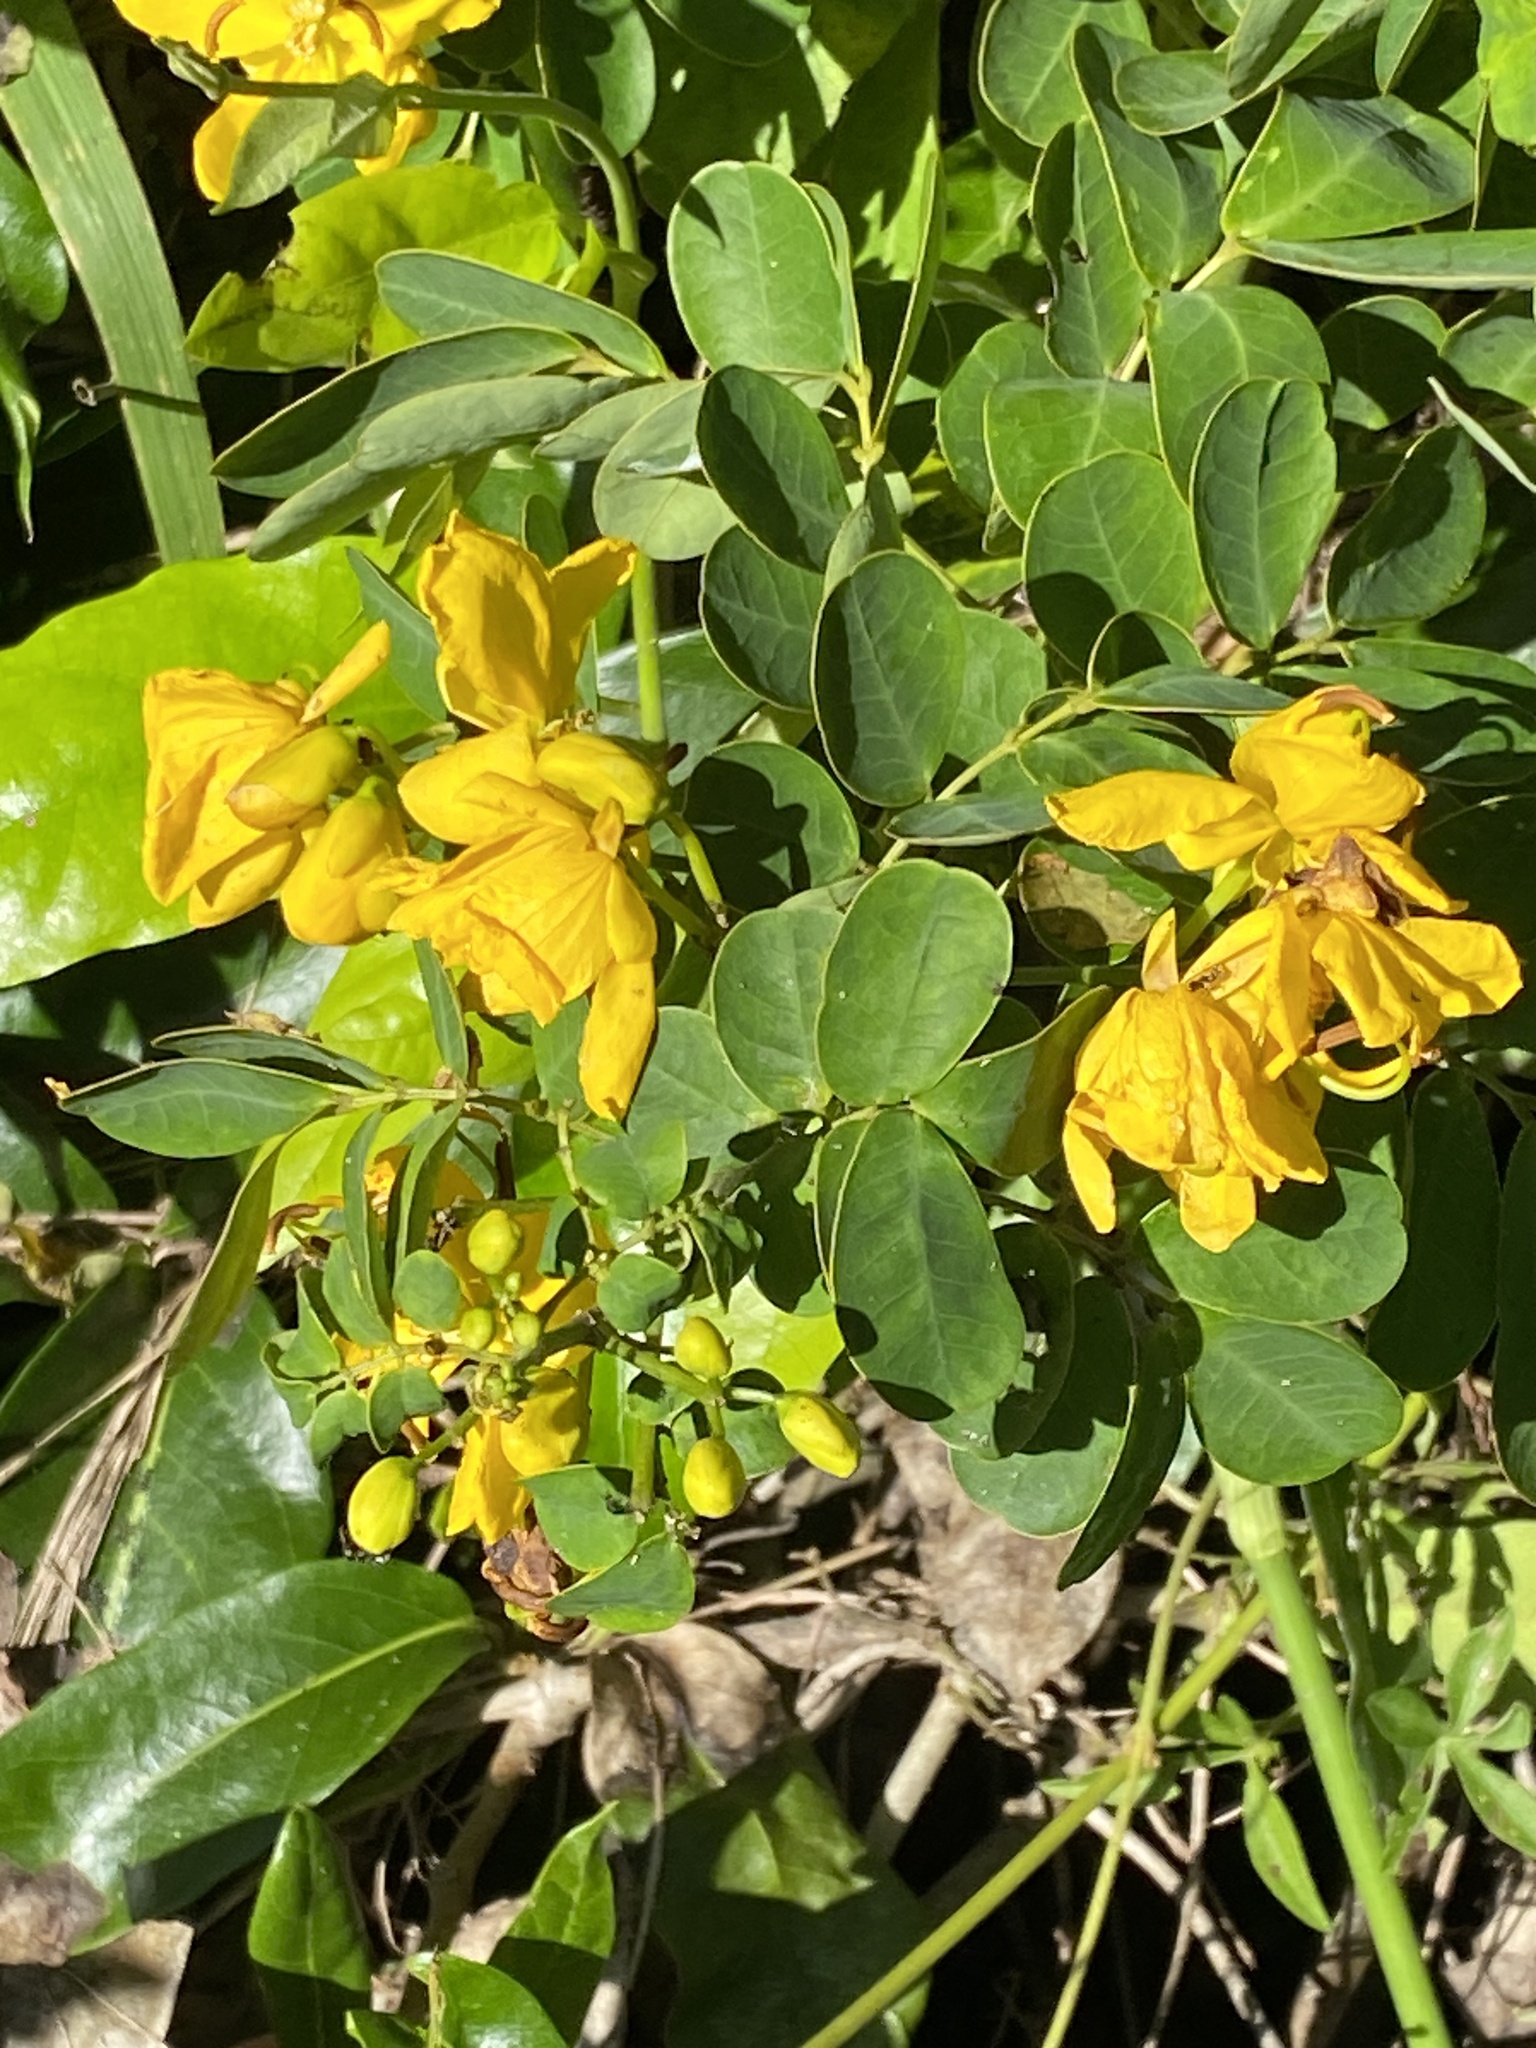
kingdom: Plantae
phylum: Tracheophyta
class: Magnoliopsida
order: Fabales
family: Fabaceae
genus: Senna
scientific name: Senna pendula
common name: Easter cassia
